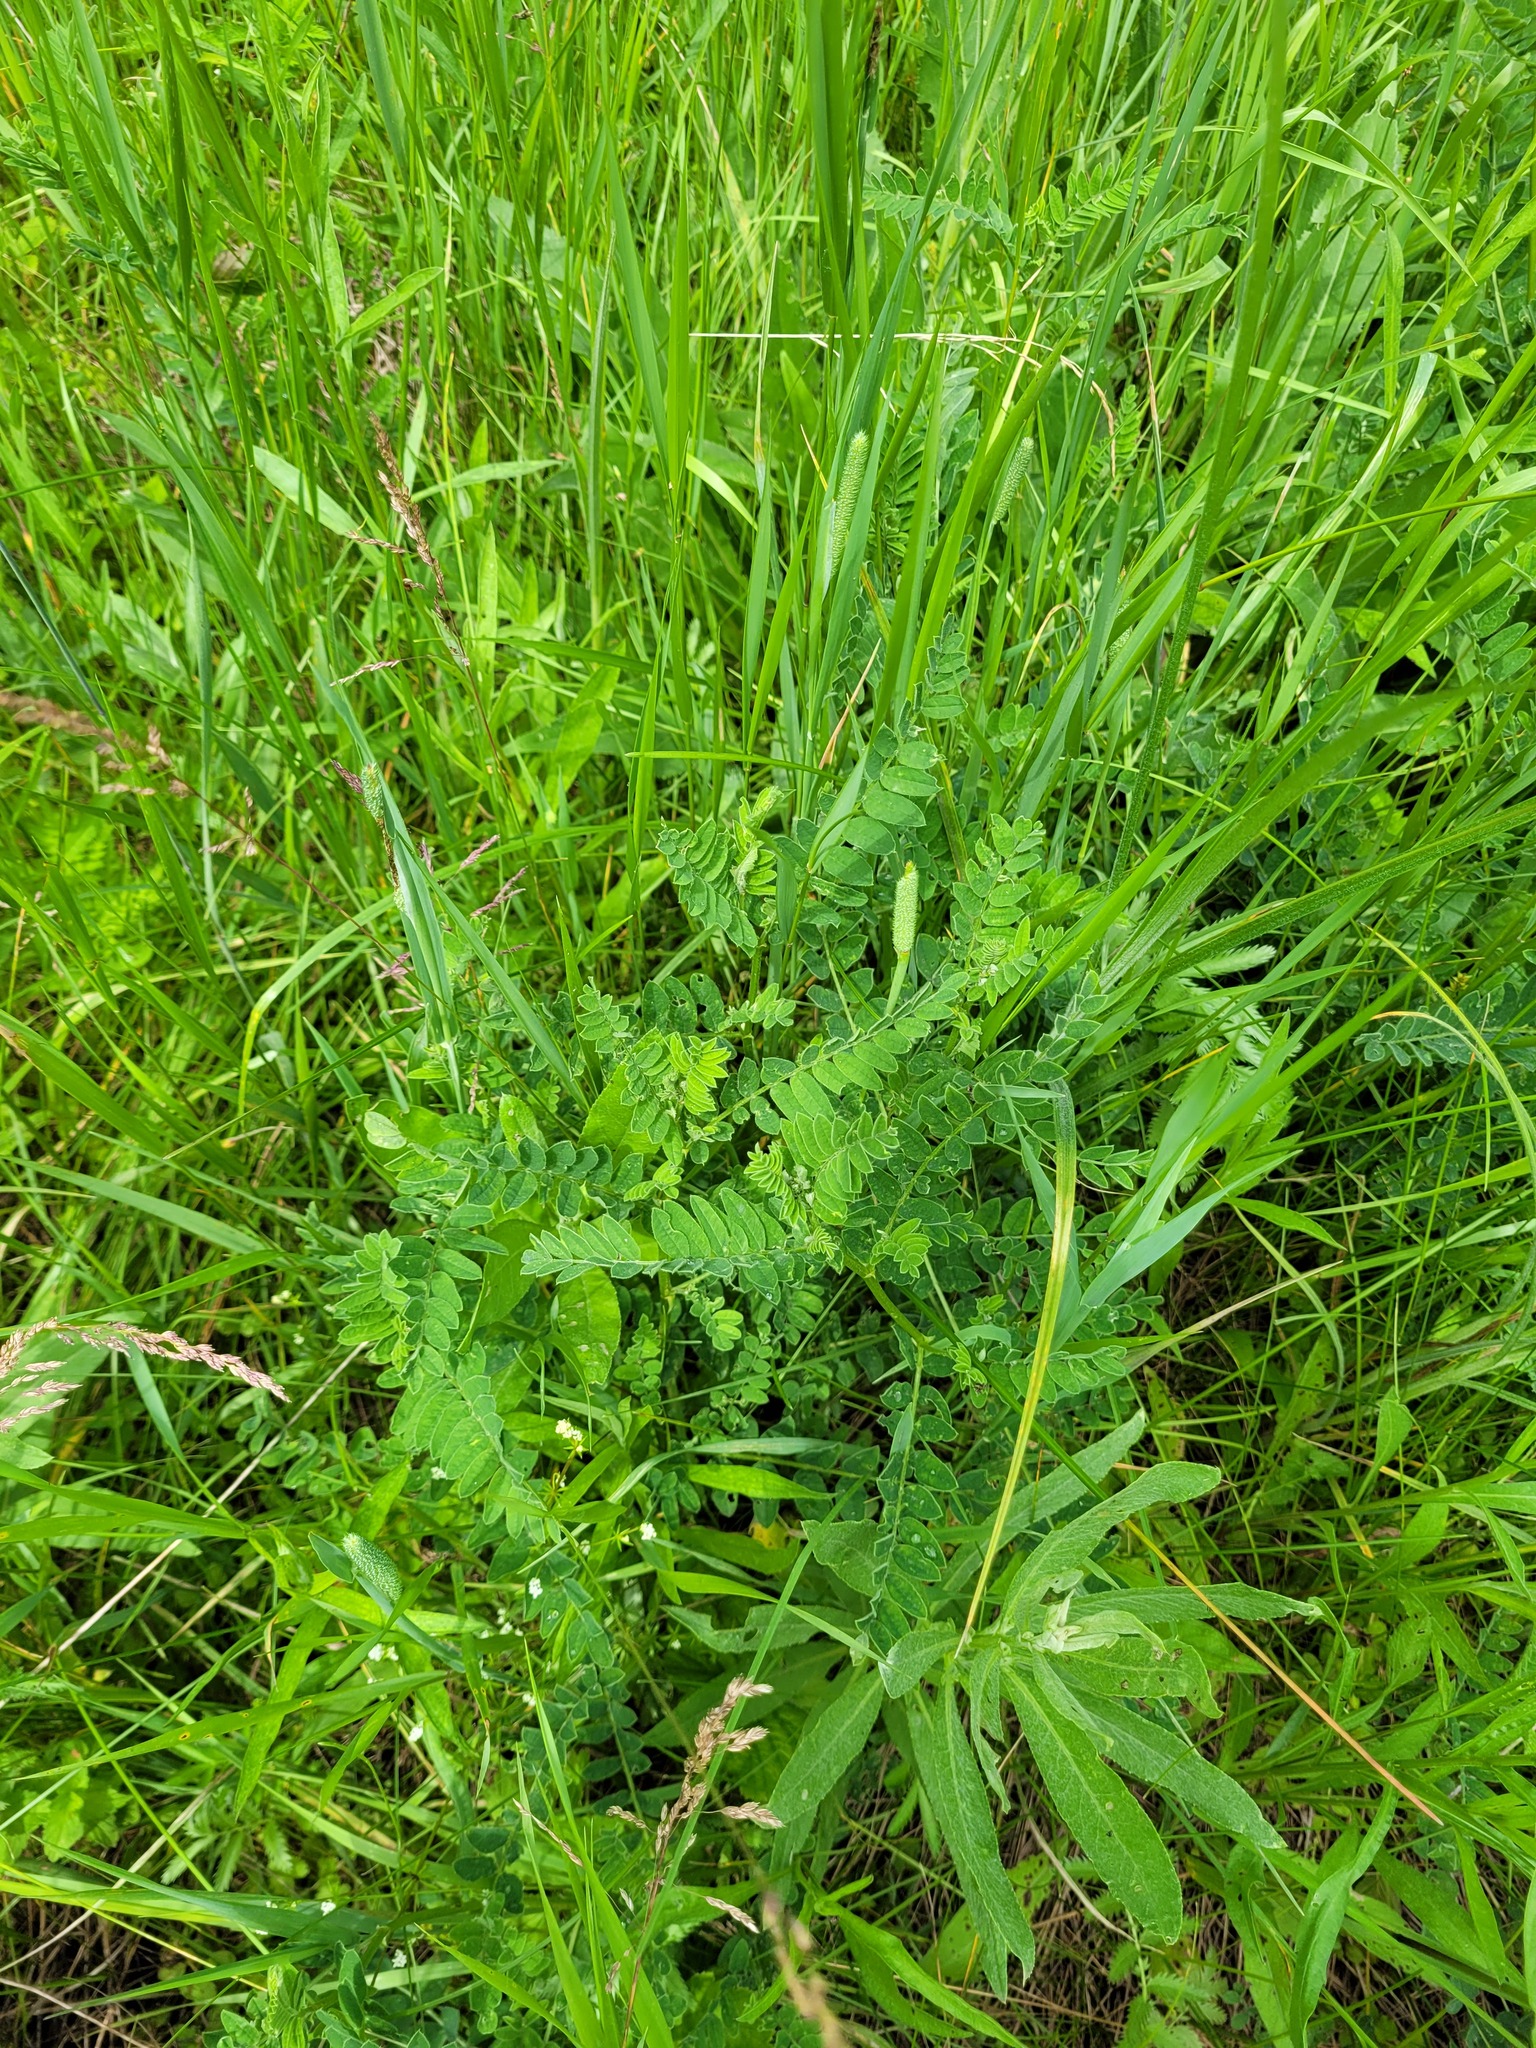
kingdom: Plantae
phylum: Tracheophyta
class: Magnoliopsida
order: Fabales
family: Fabaceae
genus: Astragalus
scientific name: Astragalus cicer
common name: Chick-pea milk-vetch
